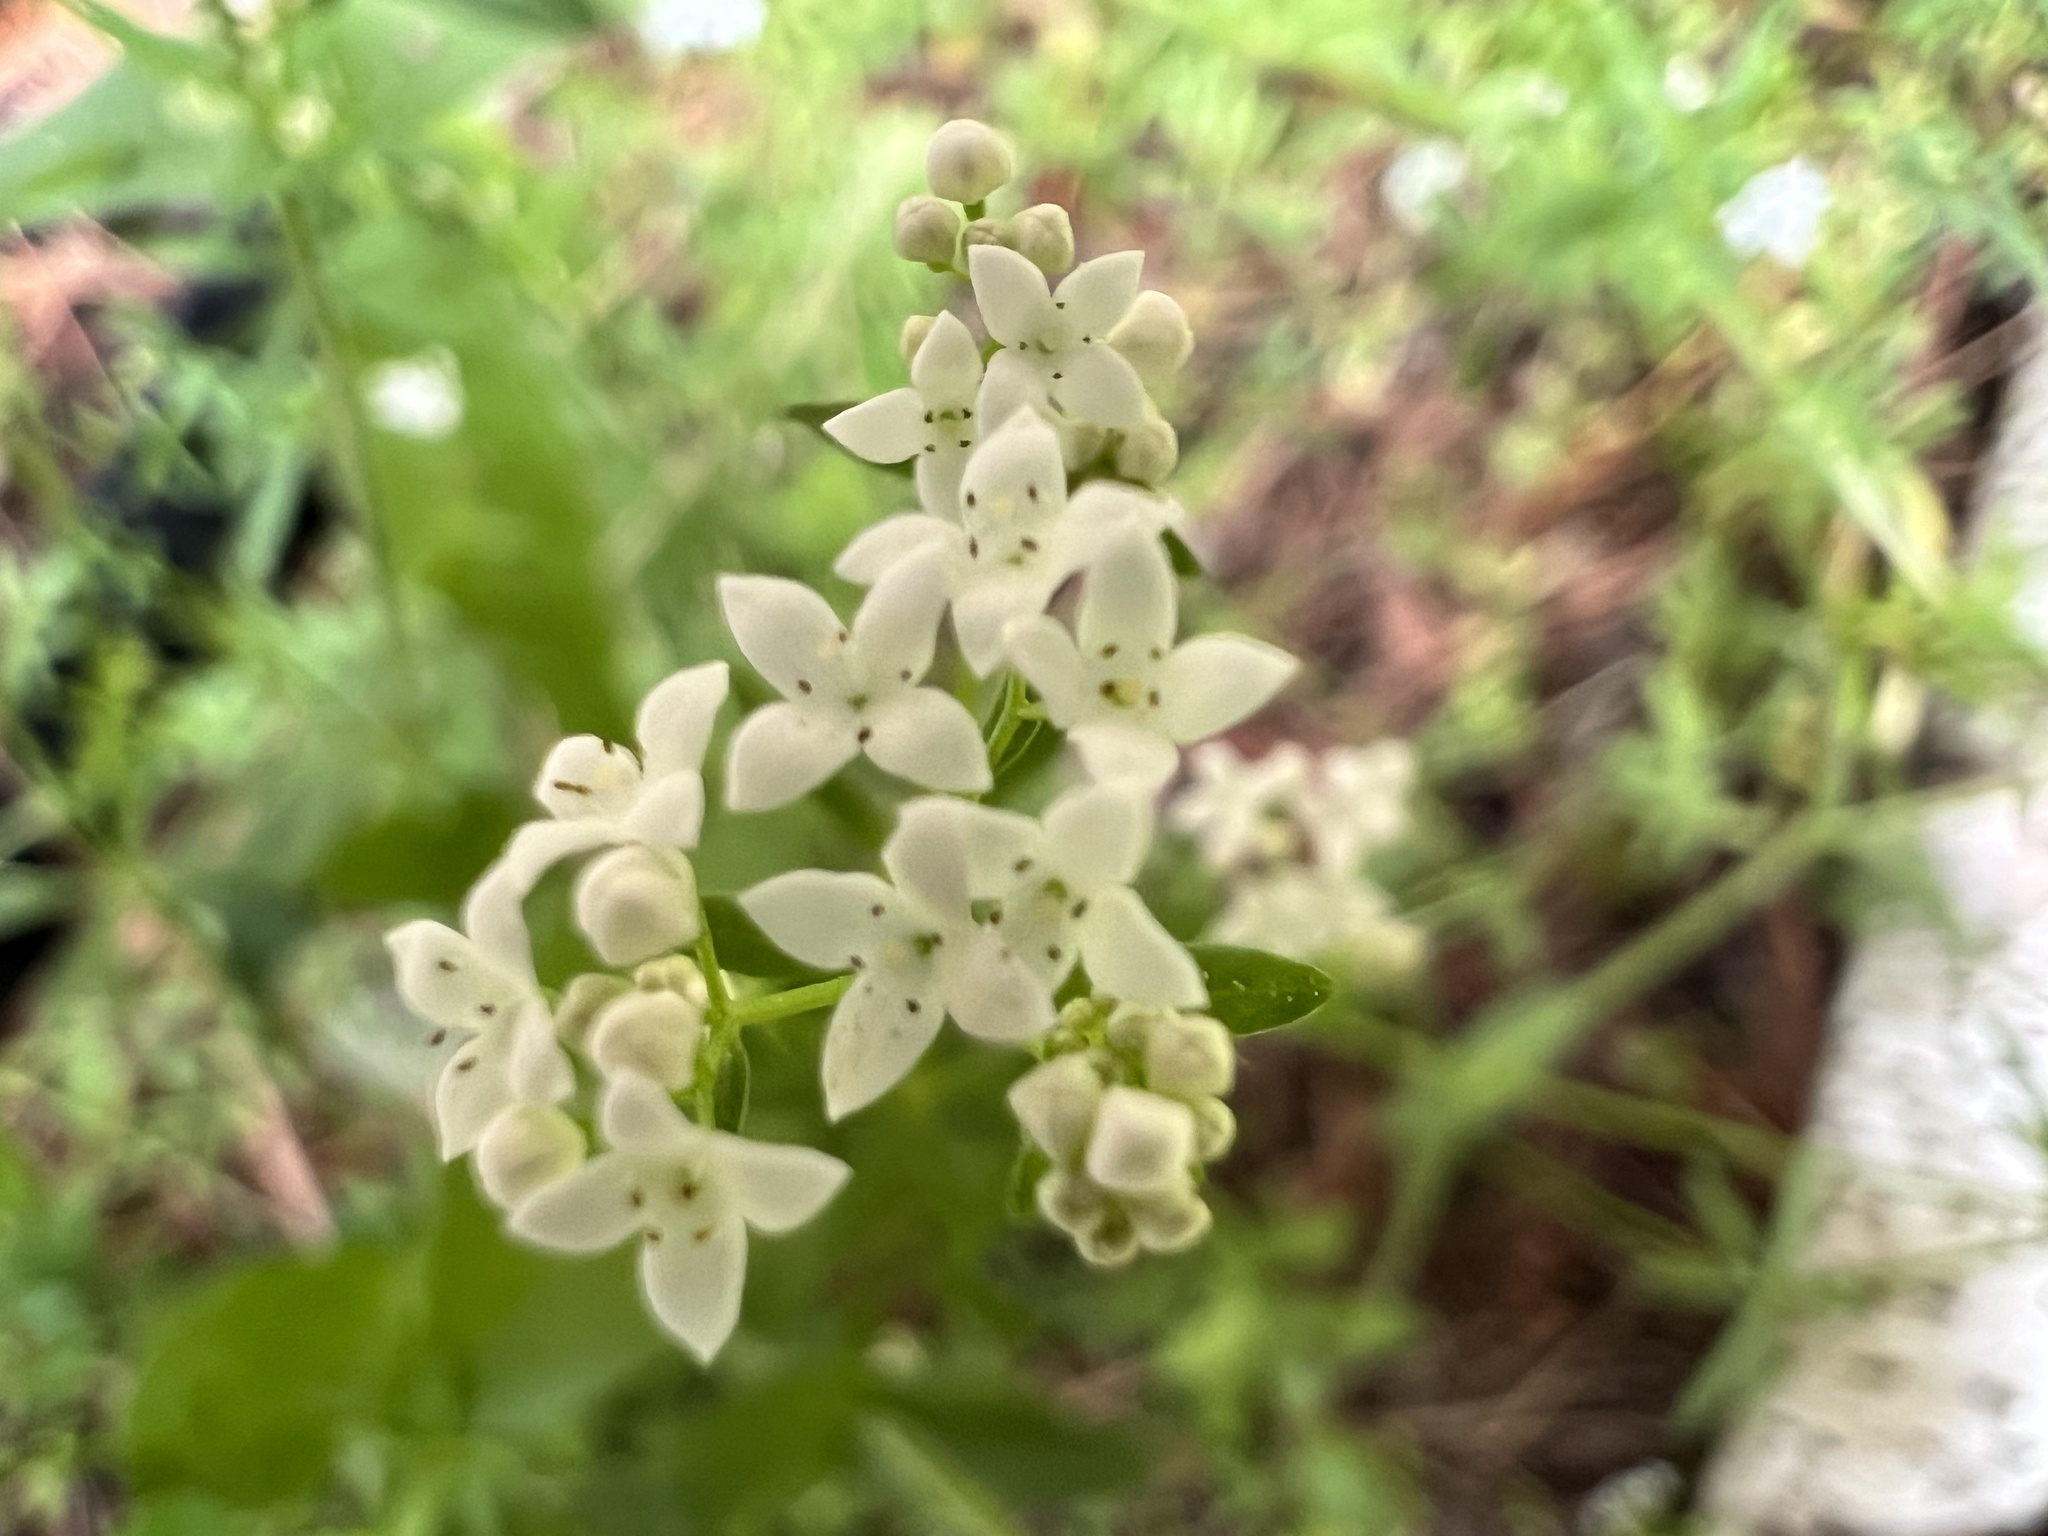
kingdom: Plantae
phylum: Tracheophyta
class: Magnoliopsida
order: Gentianales
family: Rubiaceae
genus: Galium
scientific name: Galium boreale
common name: Northern bedstraw
